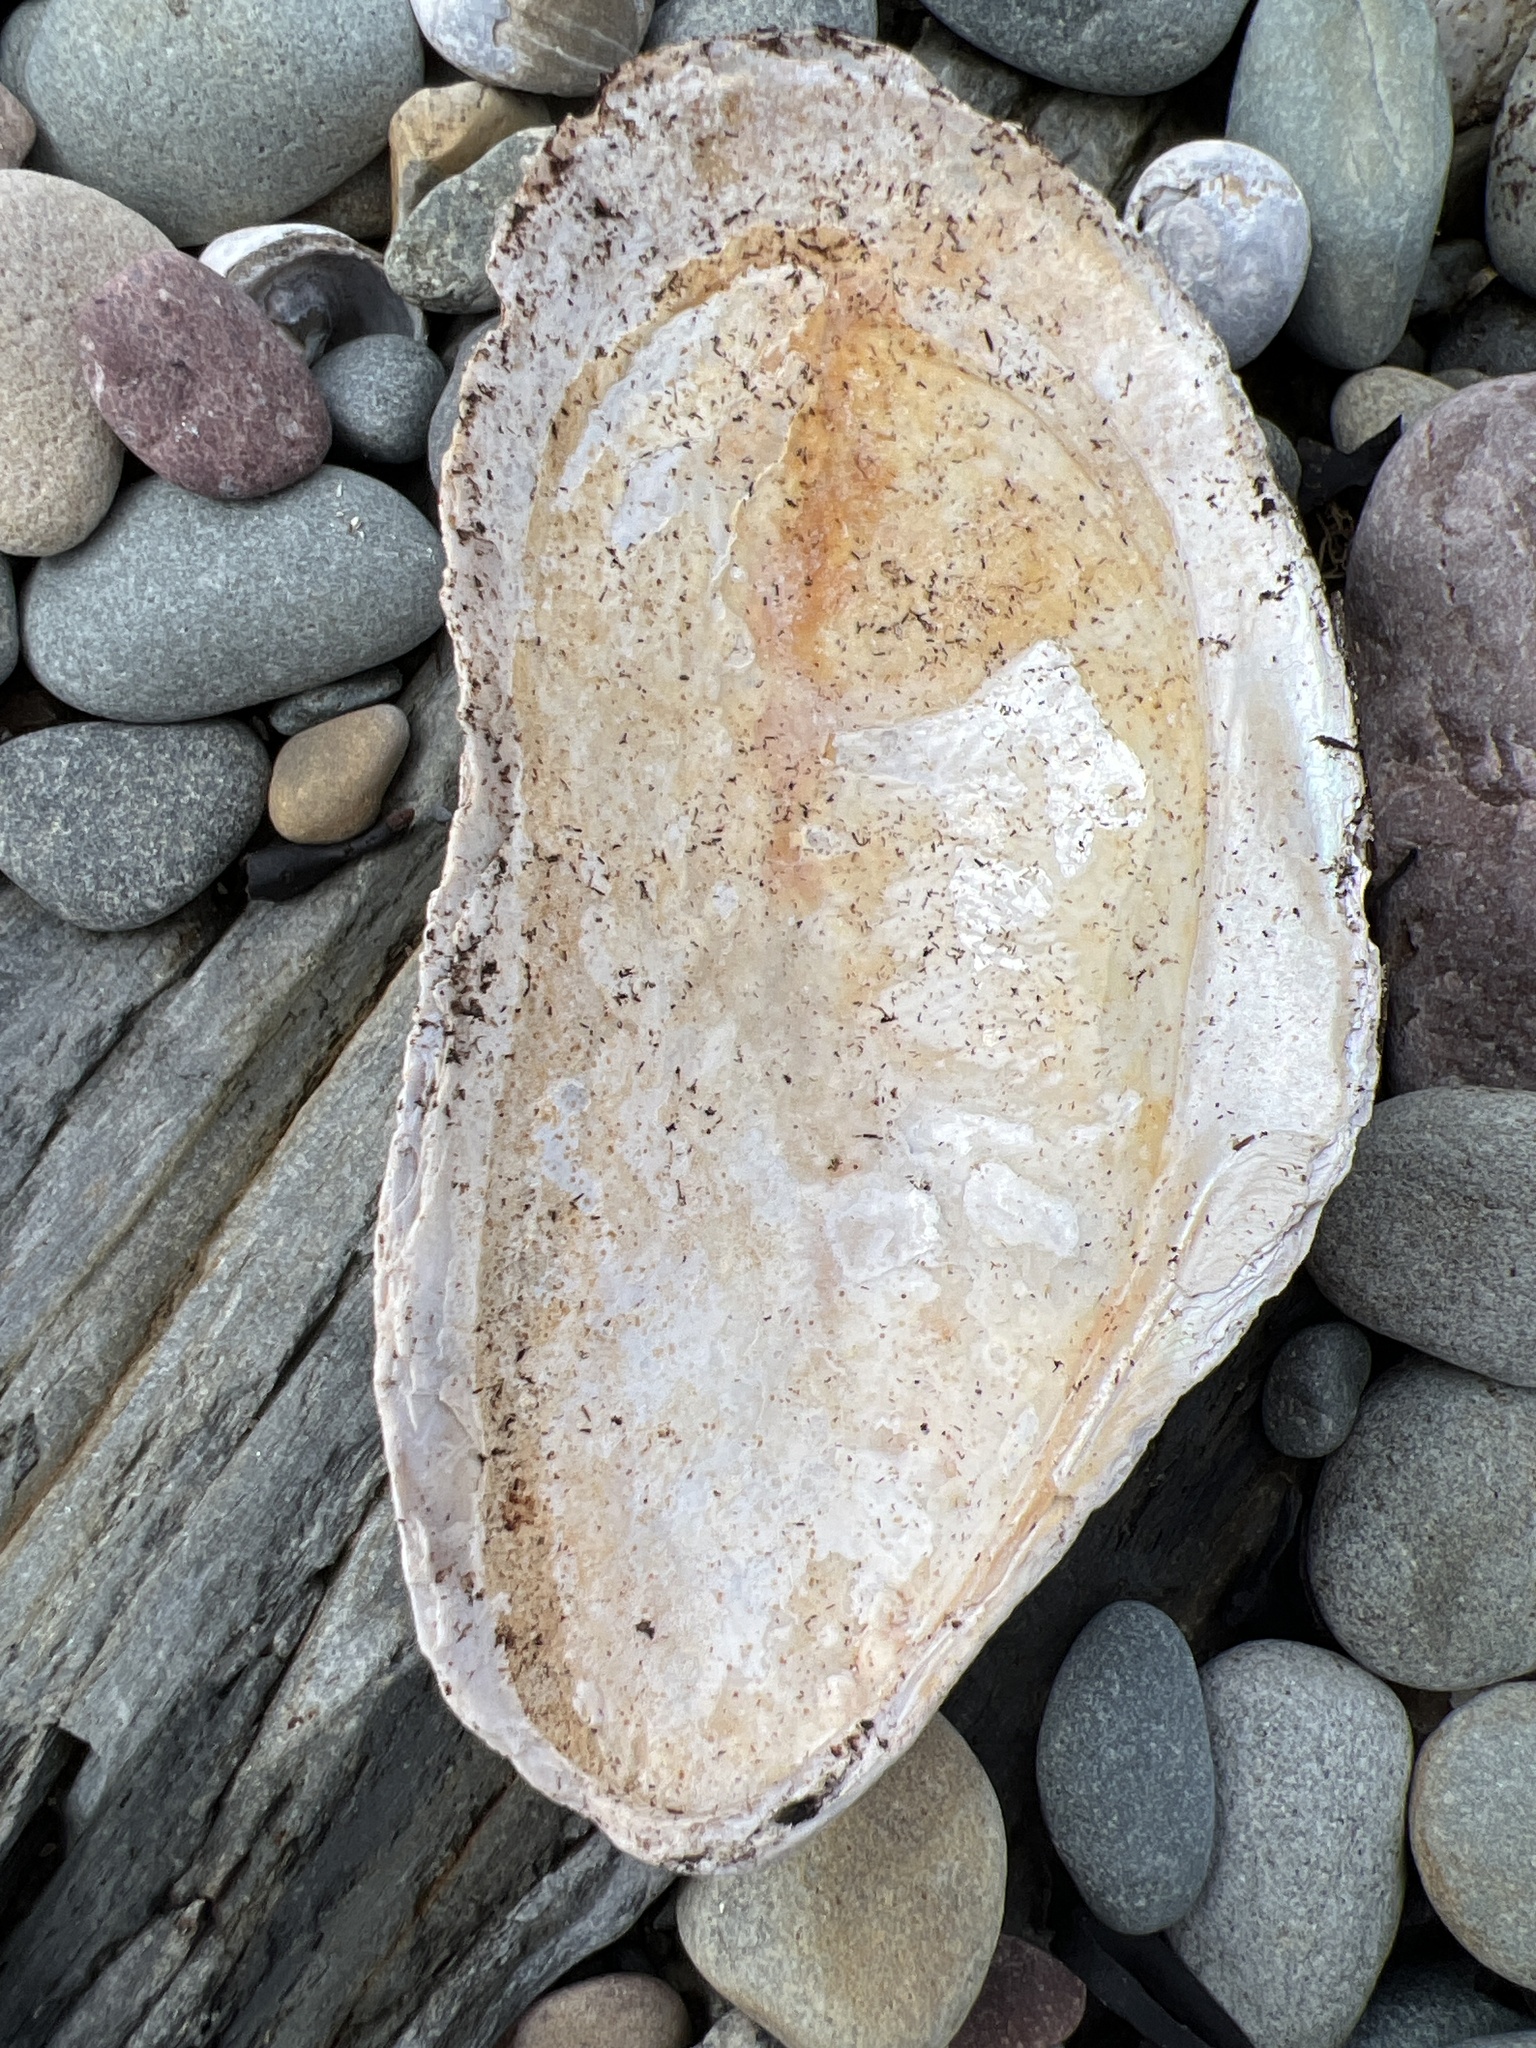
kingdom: Animalia
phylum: Mollusca
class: Bivalvia
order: Mytilida
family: Mytilidae
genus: Modiolus
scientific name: Modiolus modiolus
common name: Horse-mussel
